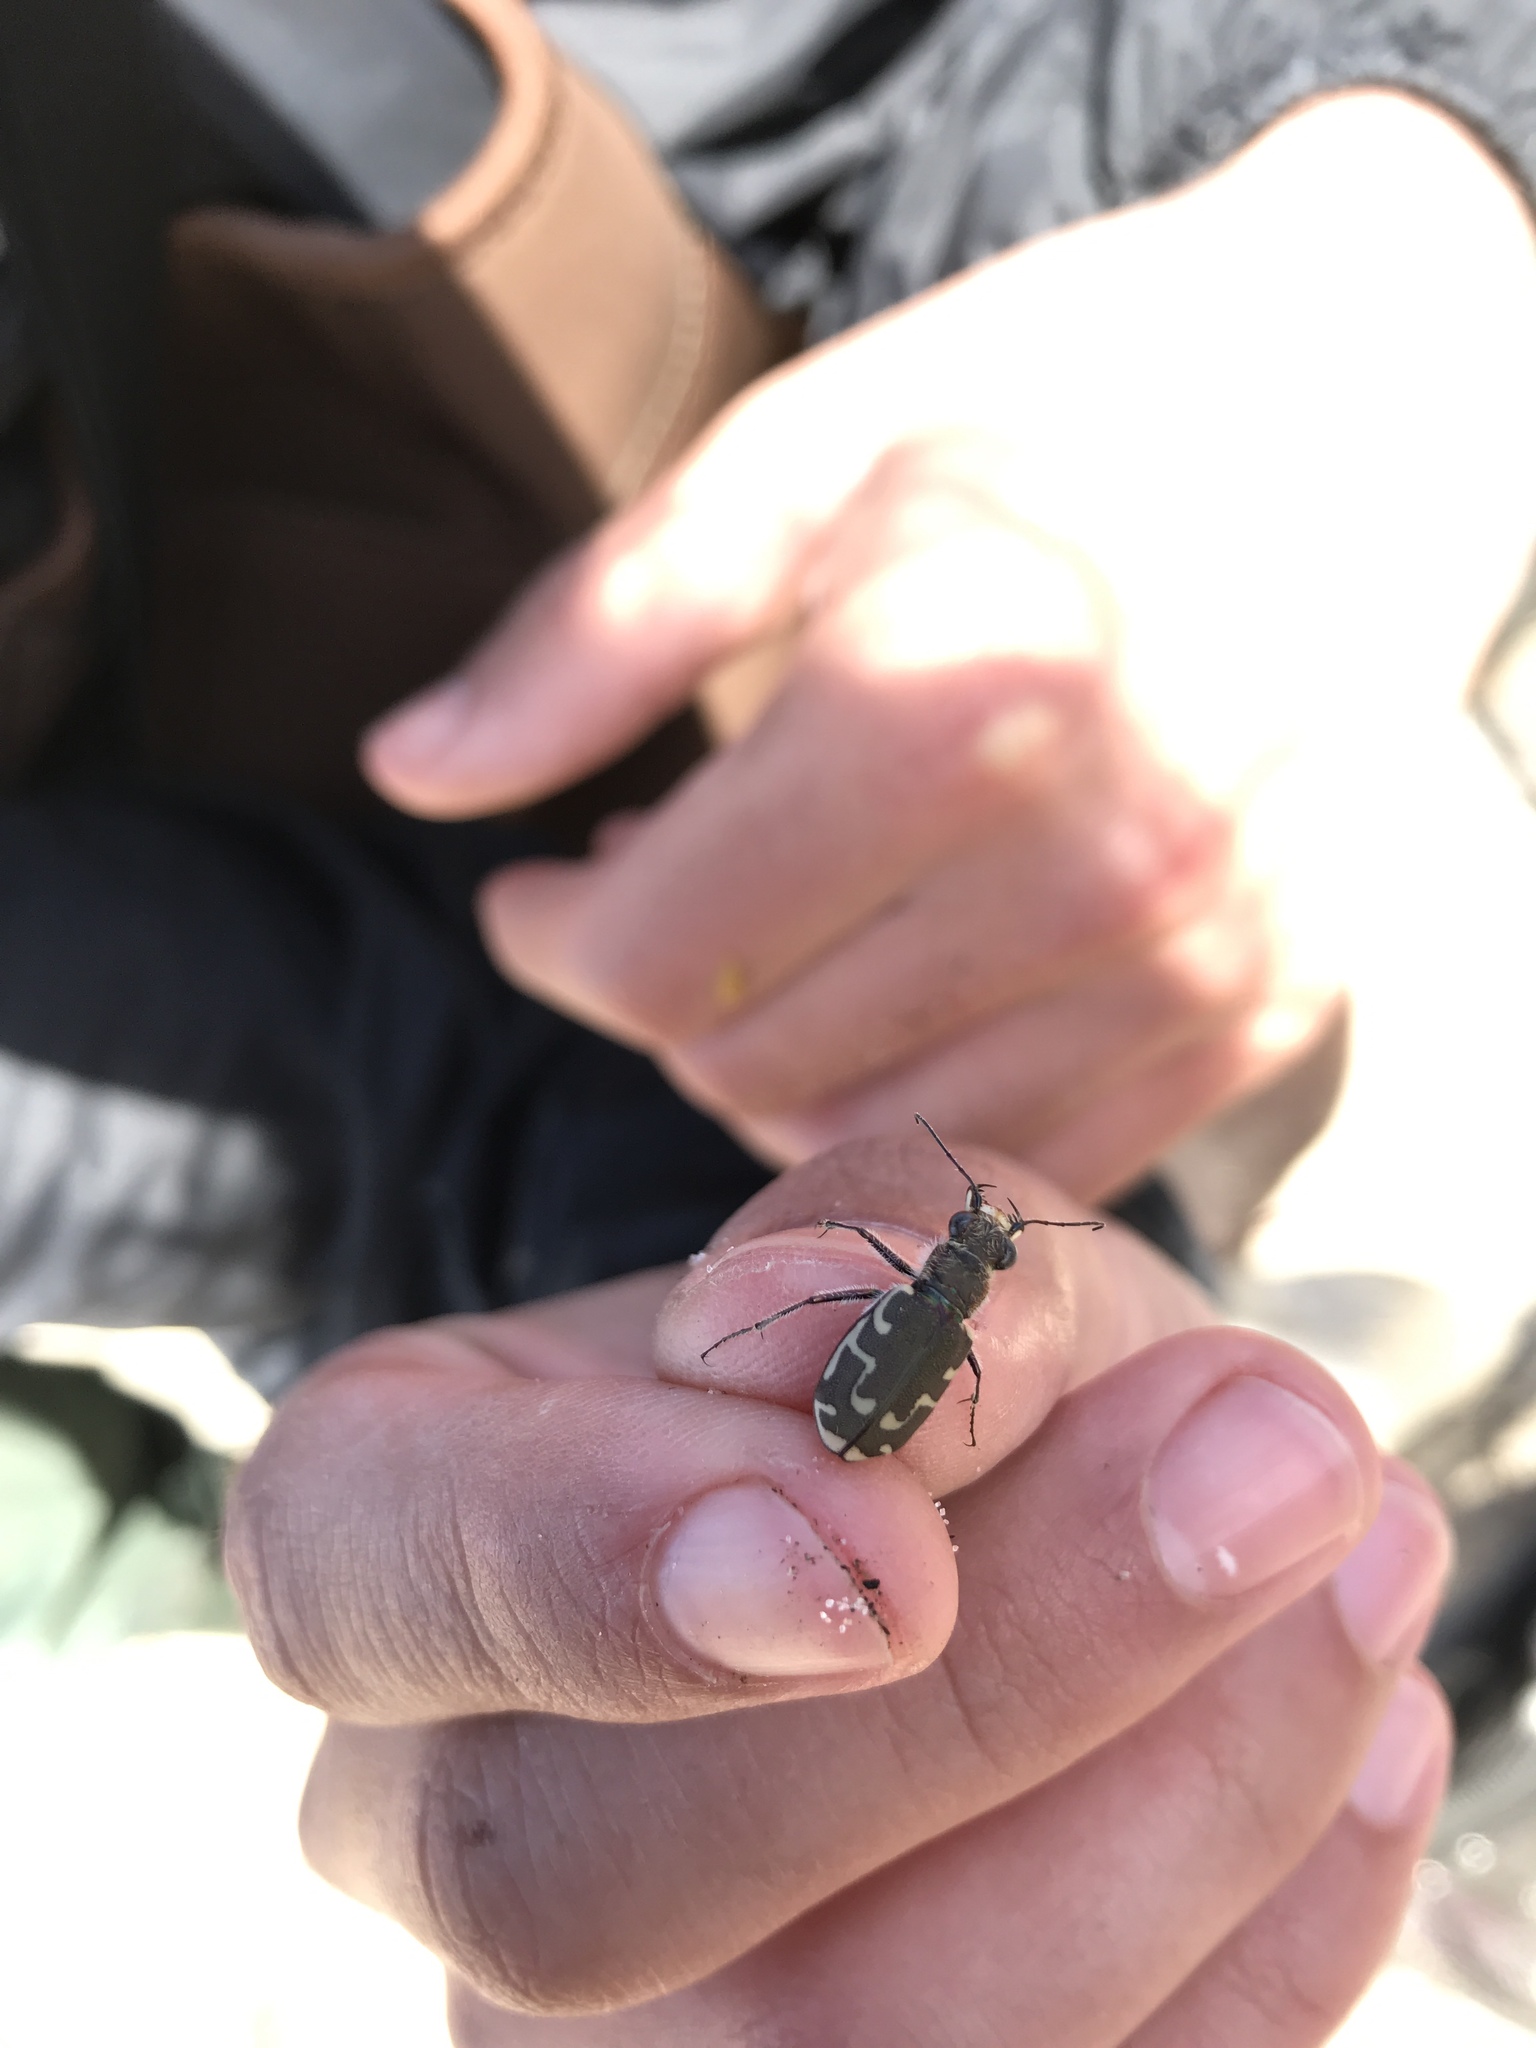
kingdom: Animalia
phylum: Arthropoda
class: Insecta
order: Coleoptera
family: Carabidae
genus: Cicindela
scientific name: Cicindela repanda
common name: Bronzed tiger beetle
